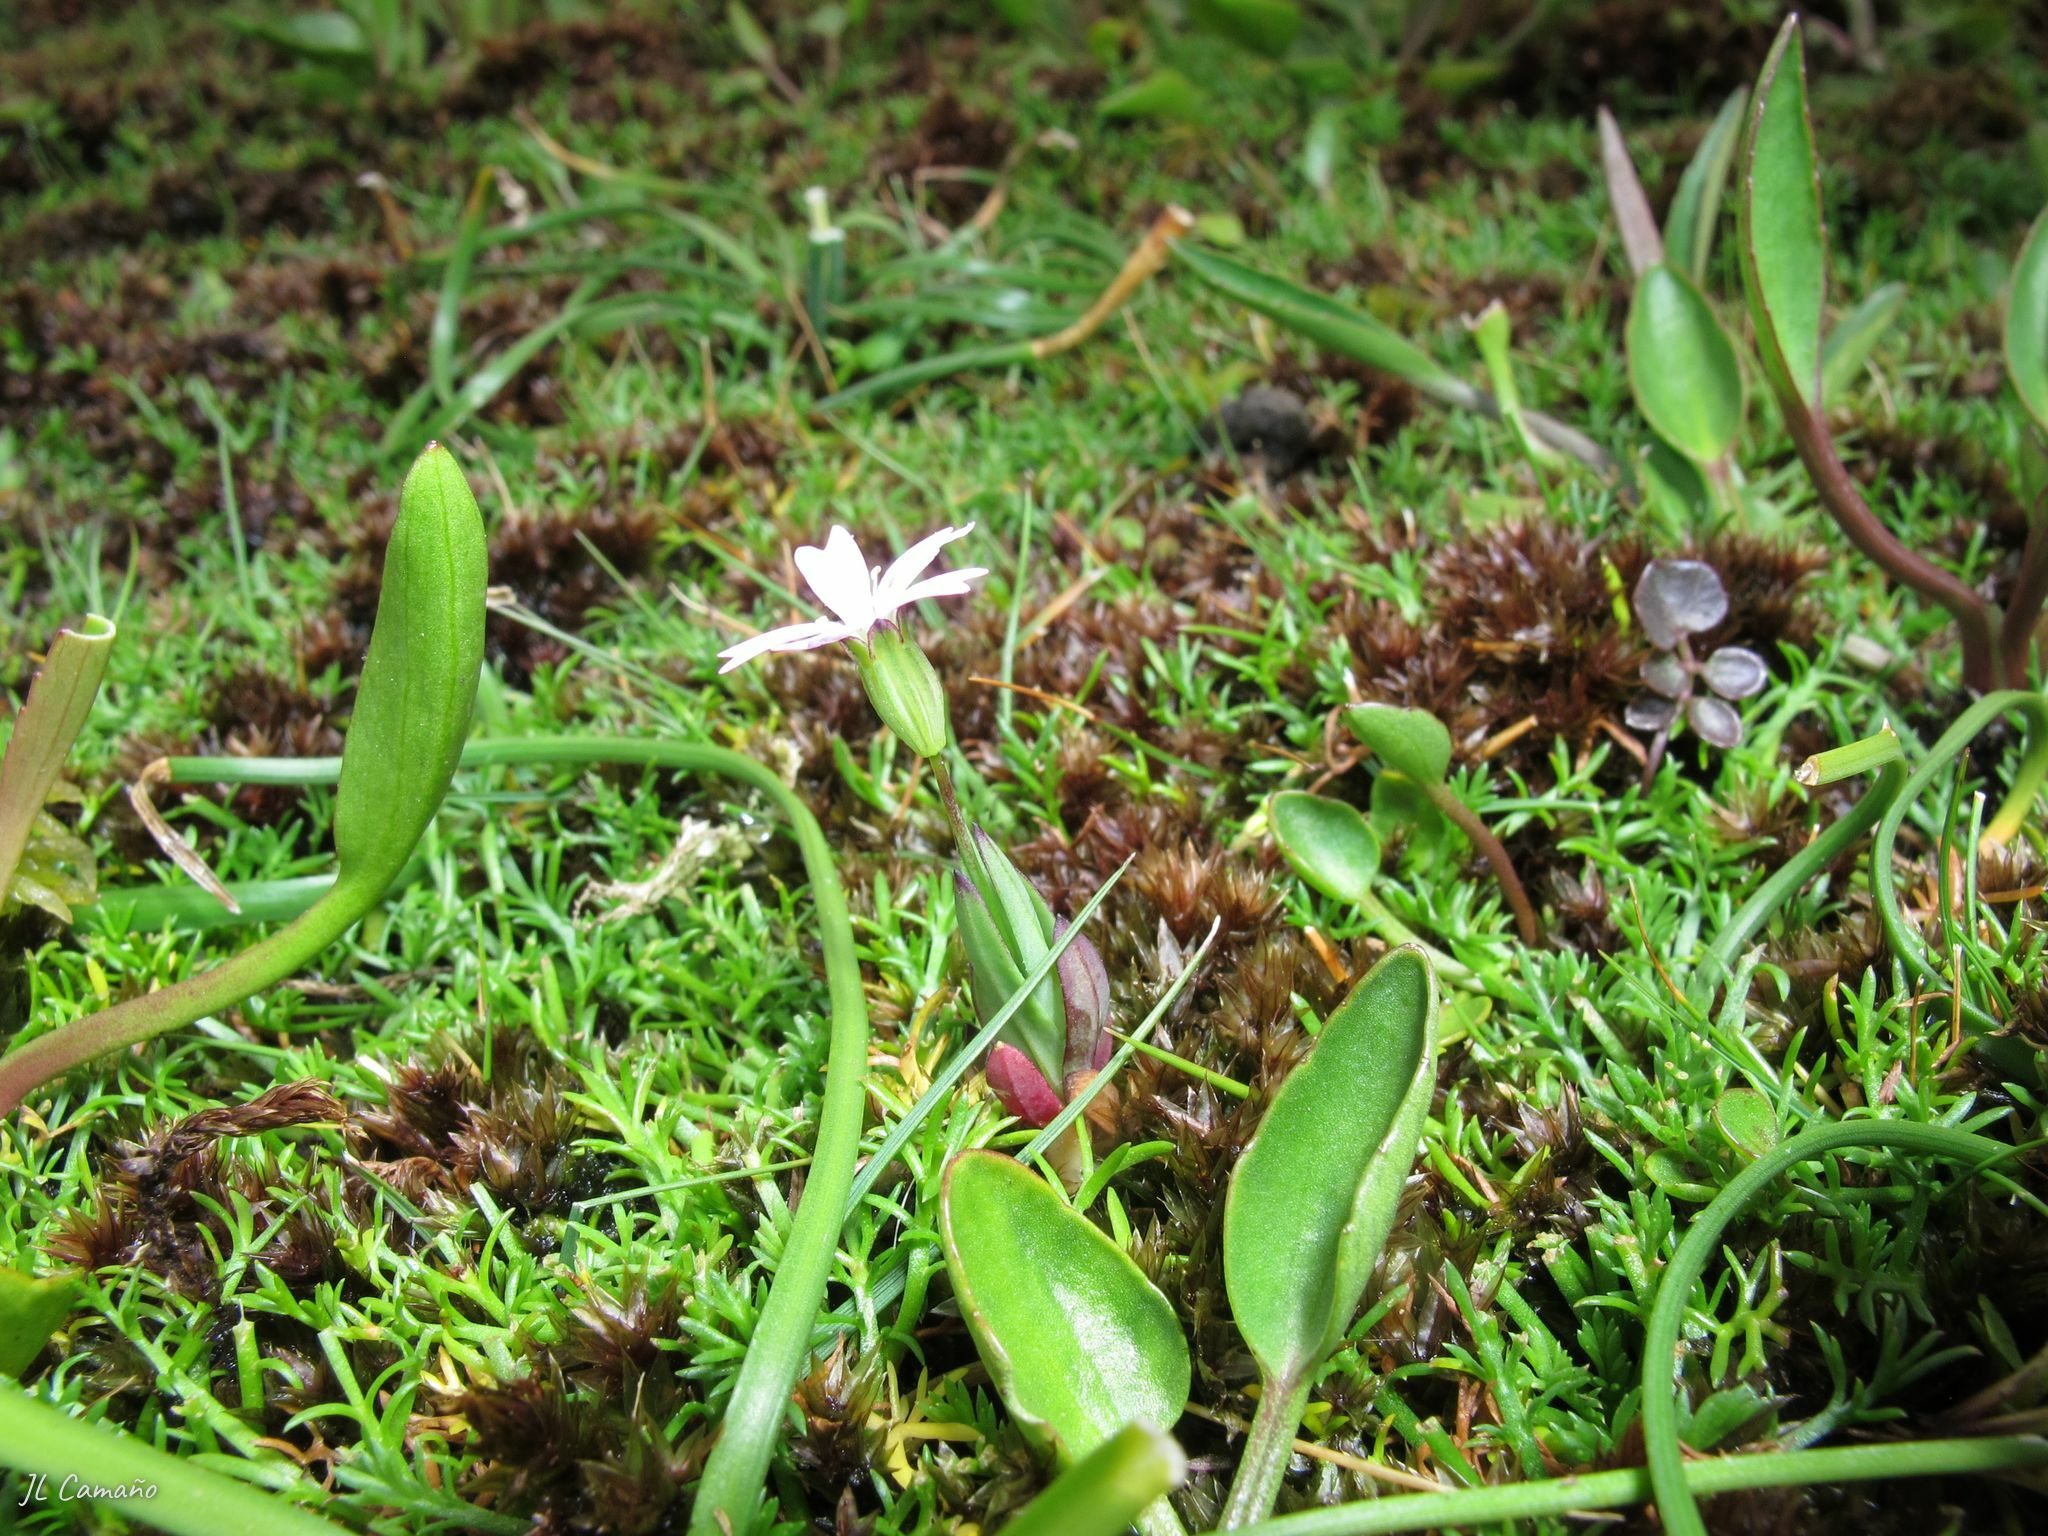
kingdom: Plantae
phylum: Tracheophyta
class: Magnoliopsida
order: Caryophyllales
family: Caryophyllaceae
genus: Eudianthe
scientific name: Eudianthe laeta
